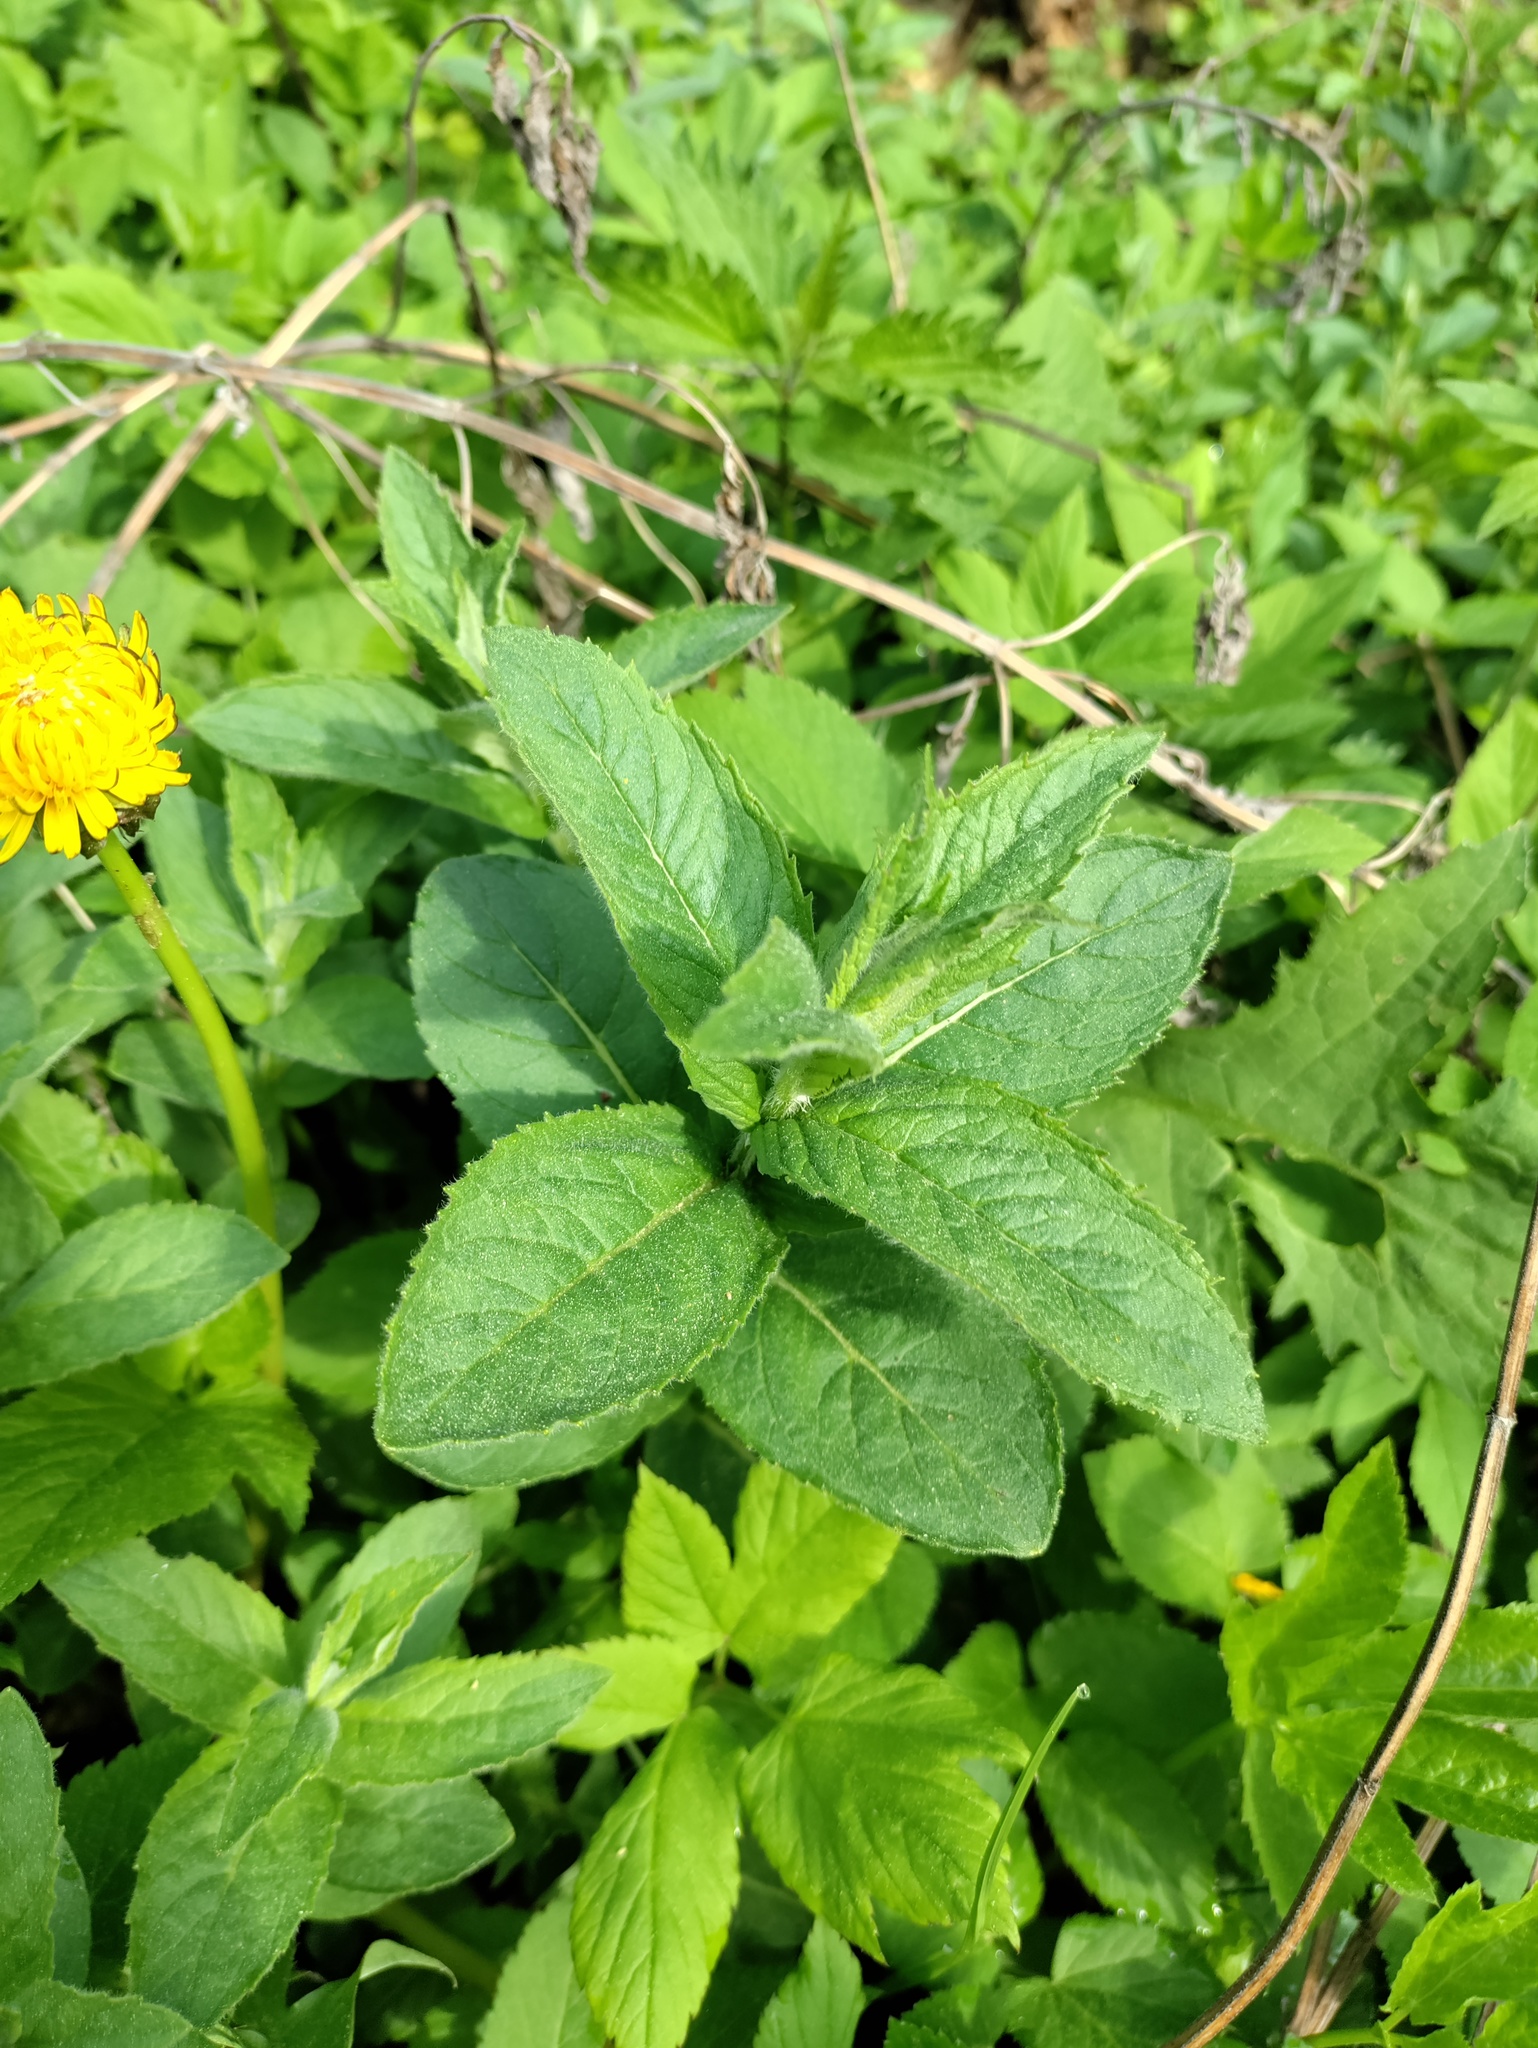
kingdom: Plantae
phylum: Tracheophyta
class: Magnoliopsida
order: Lamiales
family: Lamiaceae
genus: Mentha
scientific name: Mentha longifolia
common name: Horse mint
